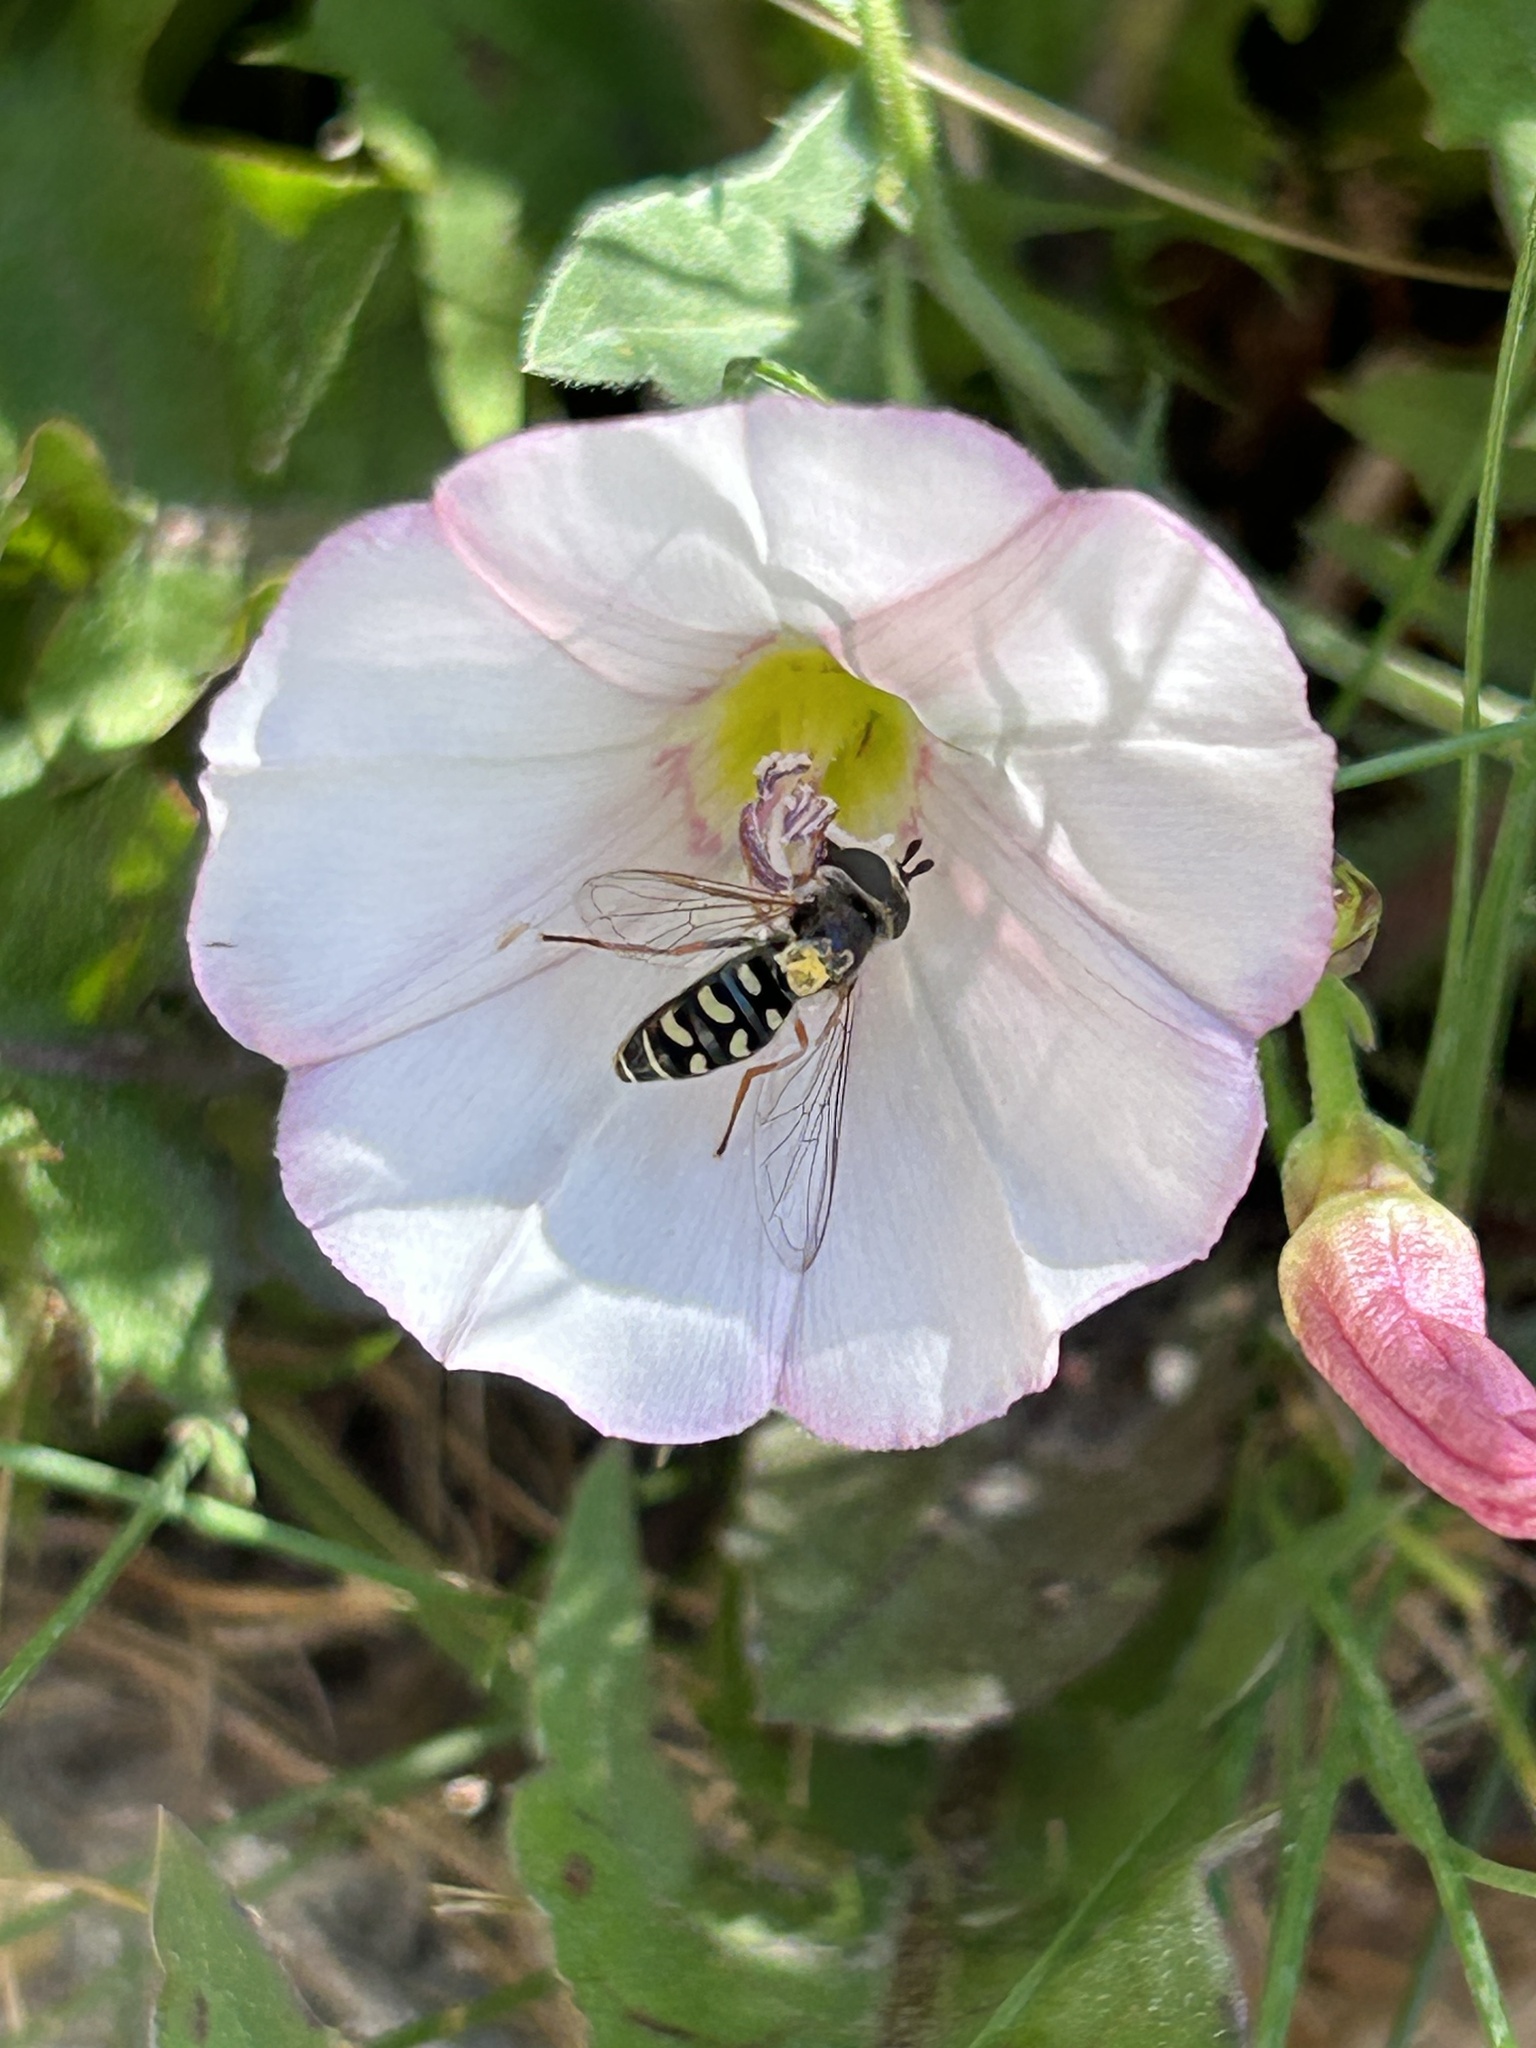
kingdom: Animalia
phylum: Arthropoda
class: Insecta
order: Diptera
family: Syrphidae
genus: Eupeodes
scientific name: Eupeodes volucris
